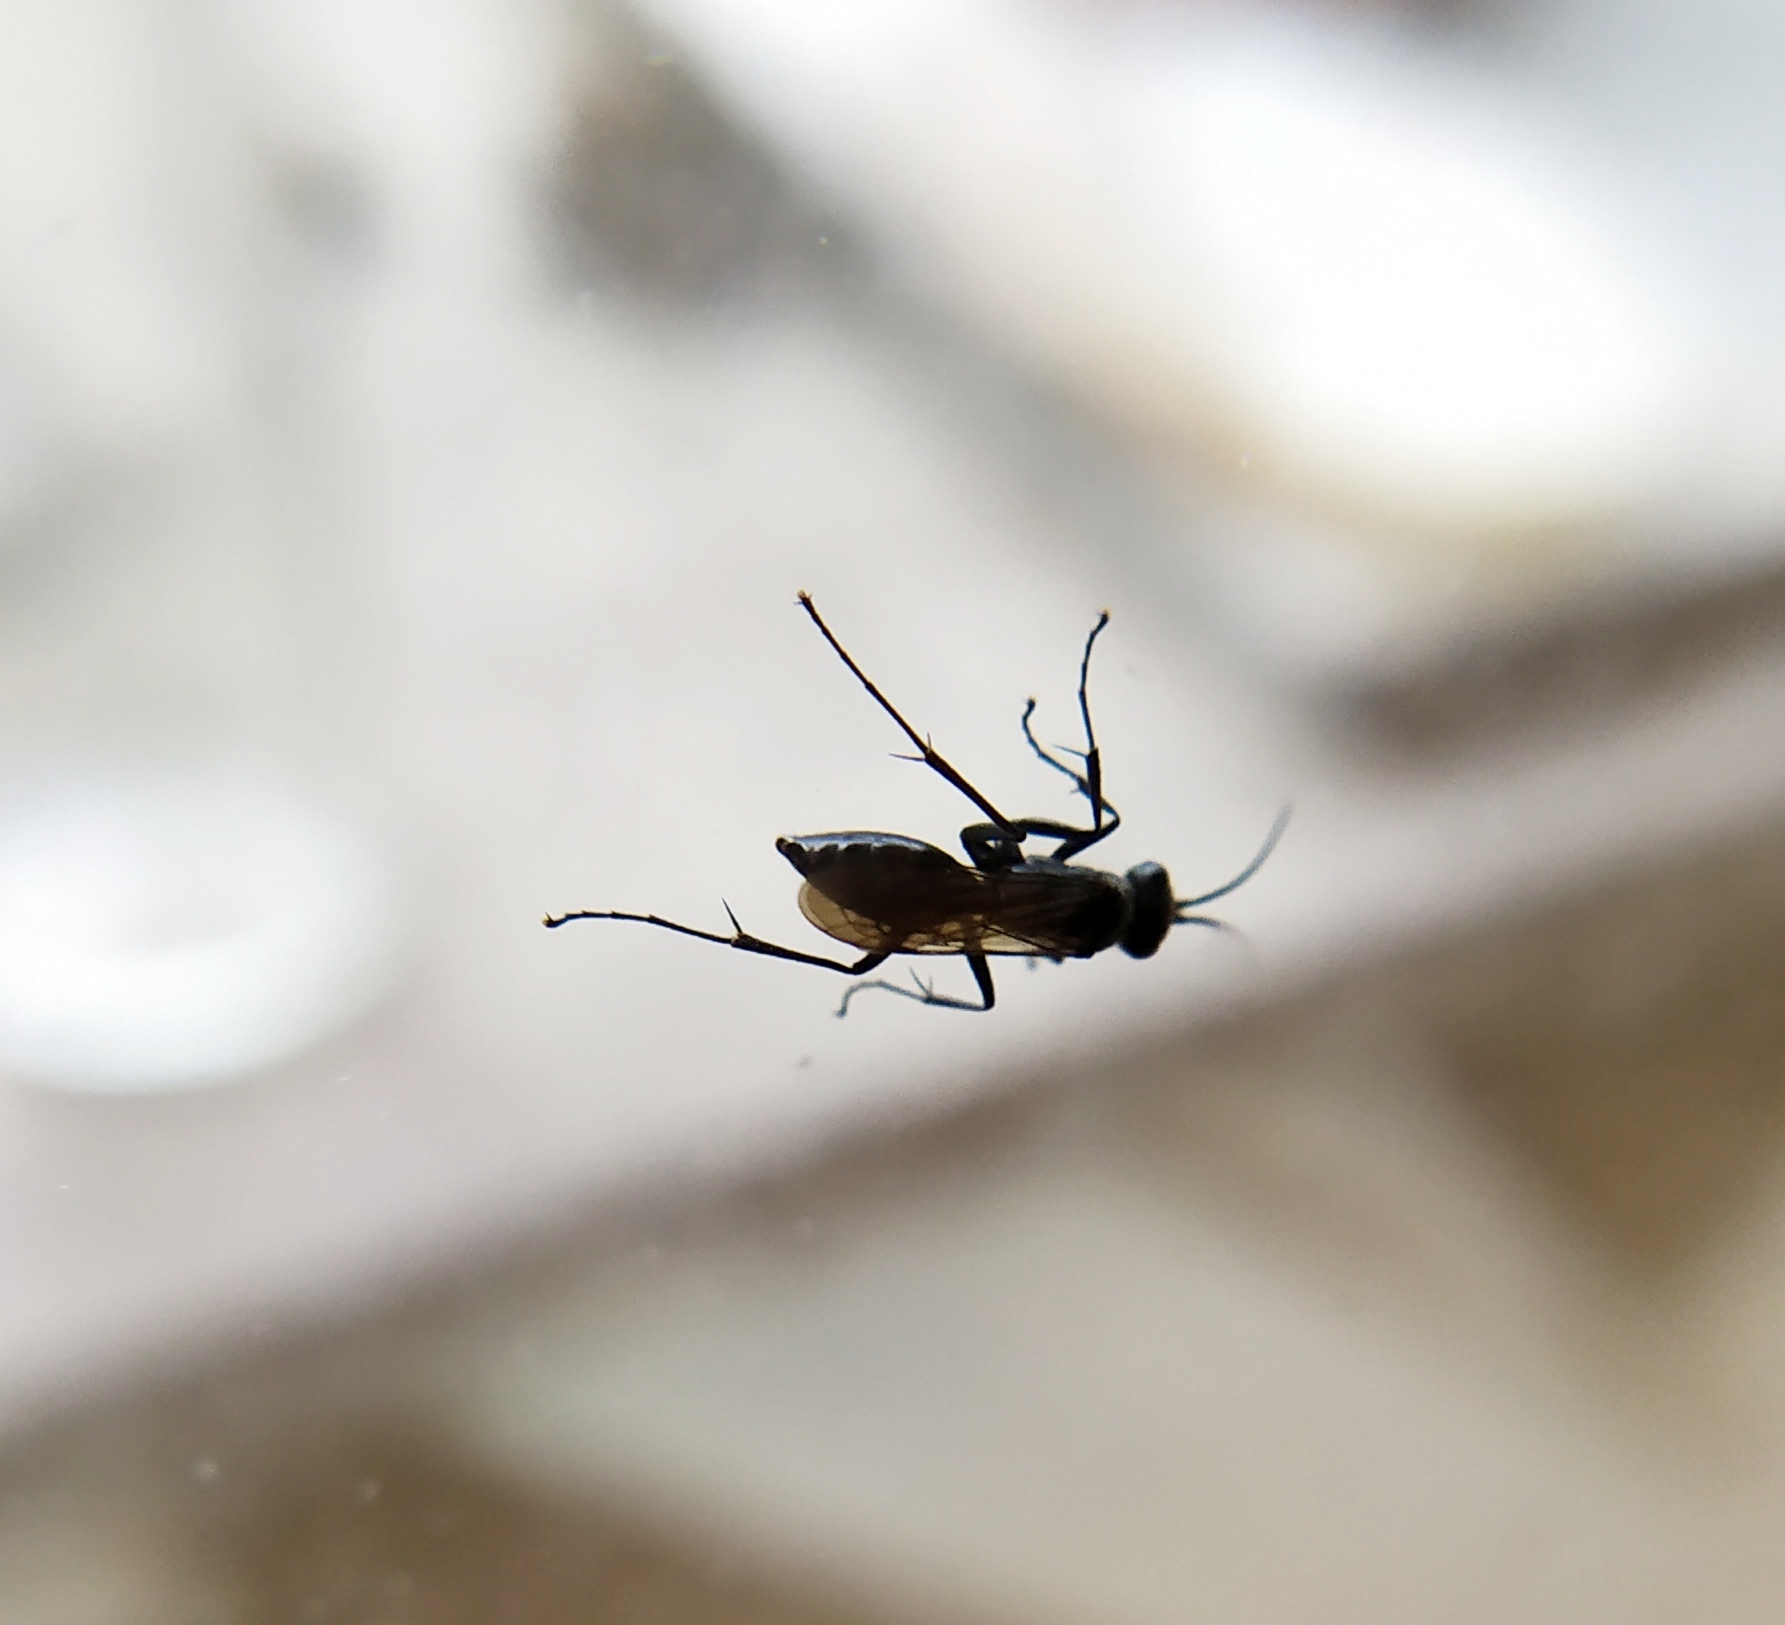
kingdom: Animalia
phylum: Arthropoda
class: Insecta
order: Hymenoptera
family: Pompilidae
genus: Auplopus
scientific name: Auplopus carbonarius
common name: Spider wasp
